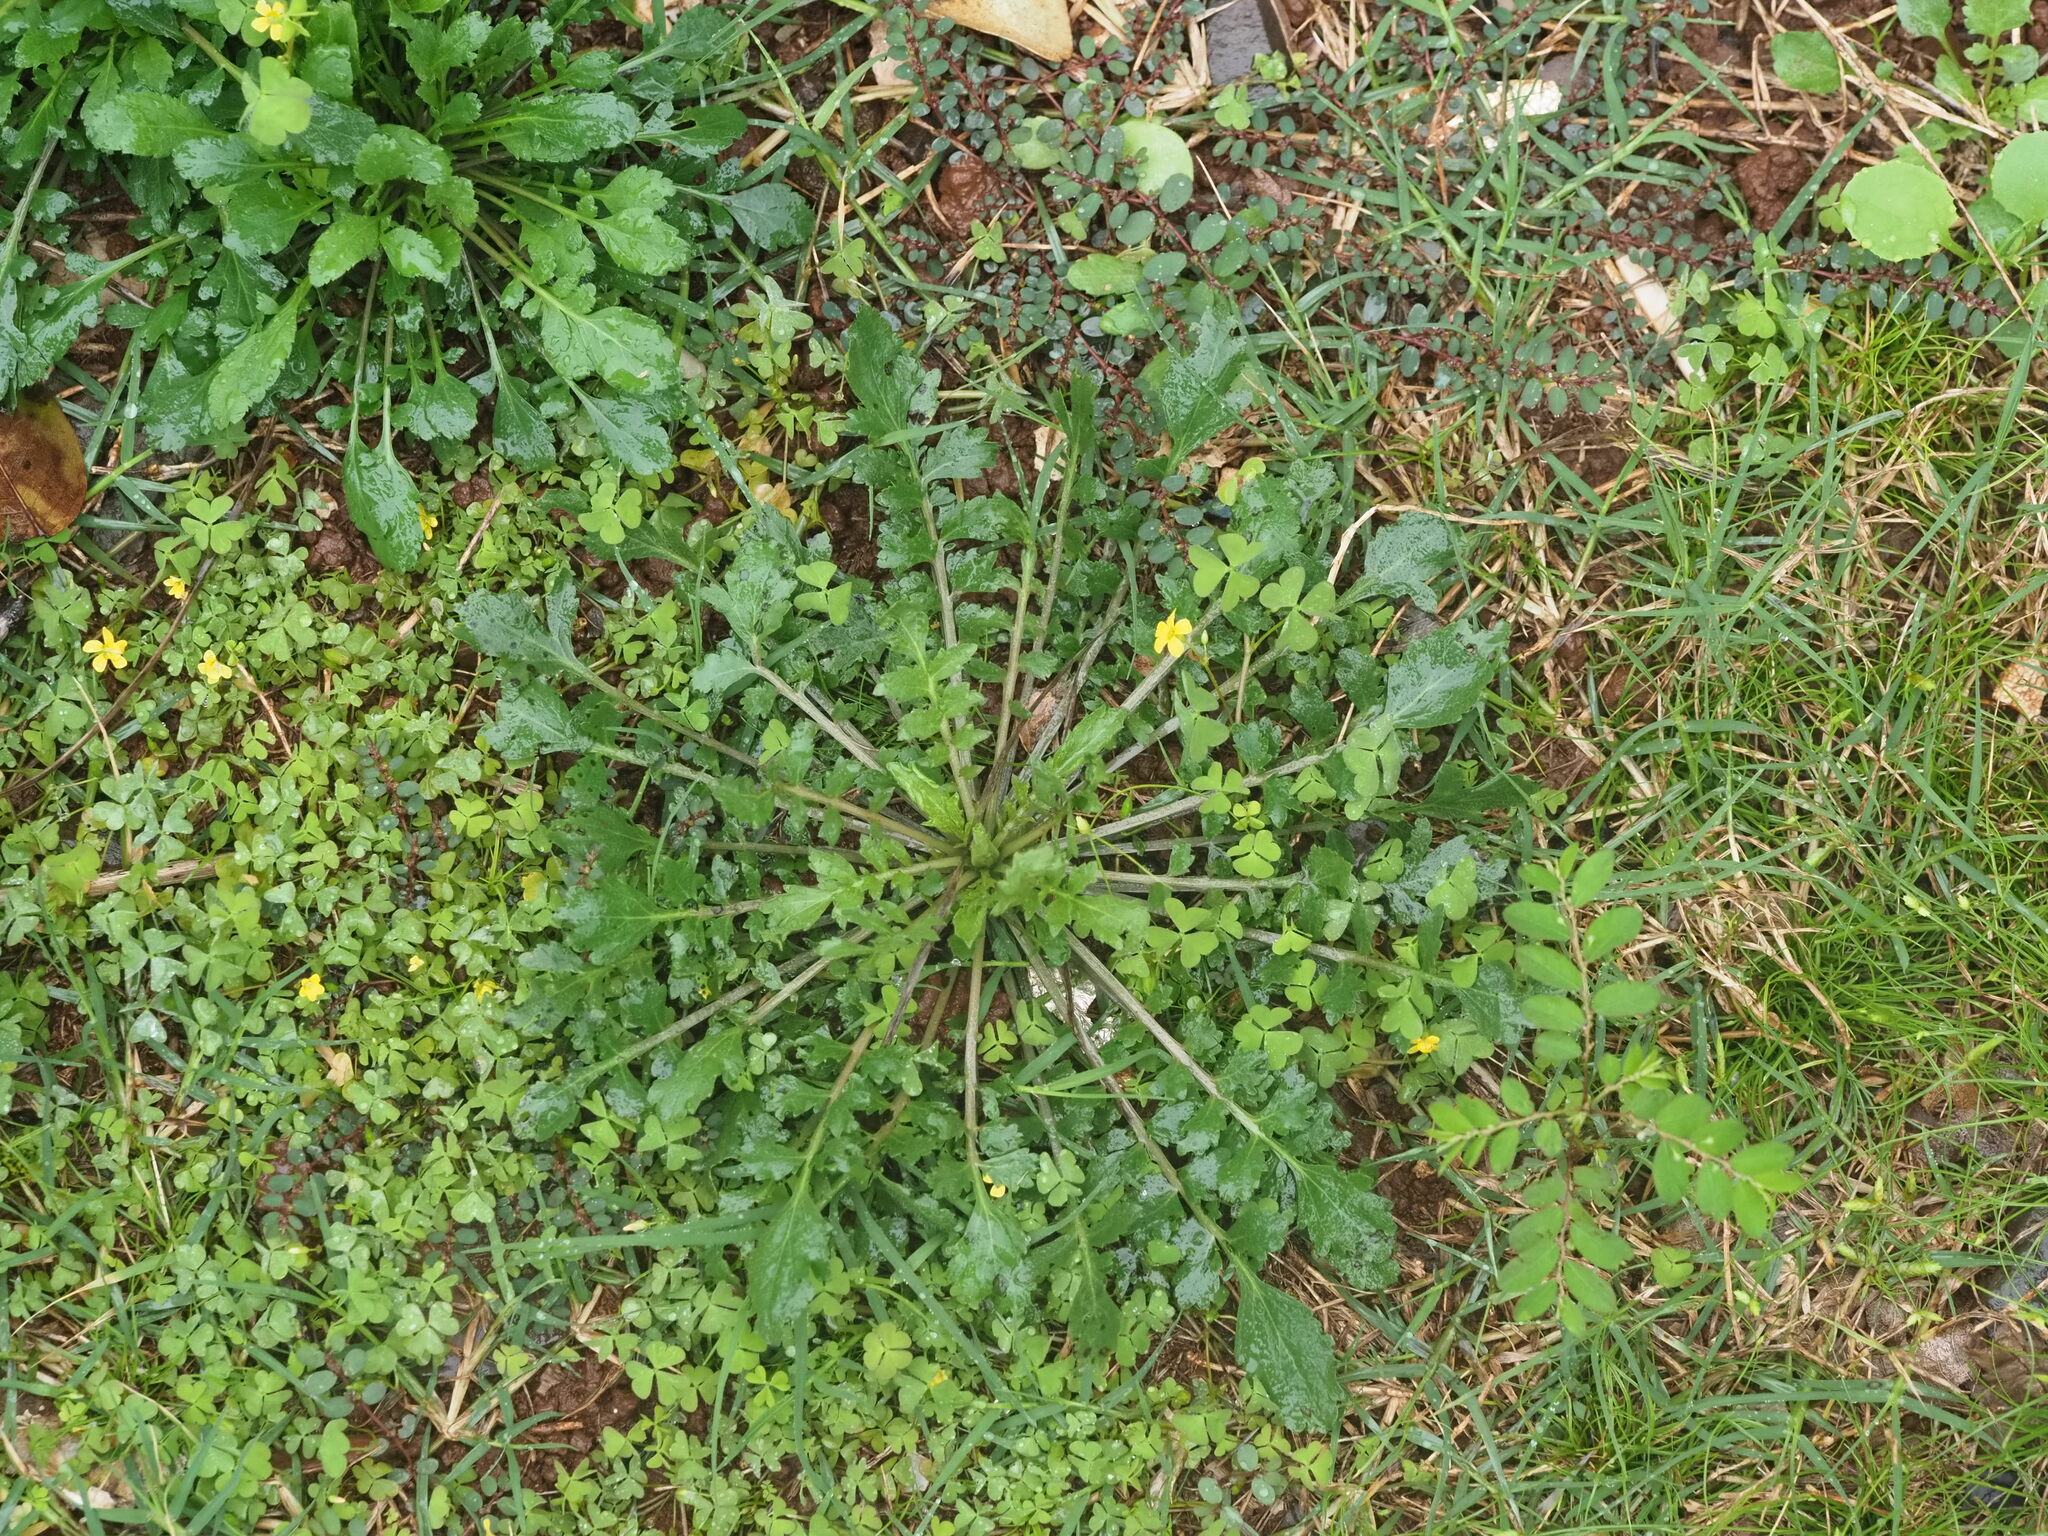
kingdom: Plantae
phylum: Tracheophyta
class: Magnoliopsida
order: Brassicales
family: Brassicaceae
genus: Lepidium
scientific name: Lepidium virginicum
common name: Least pepperwort
